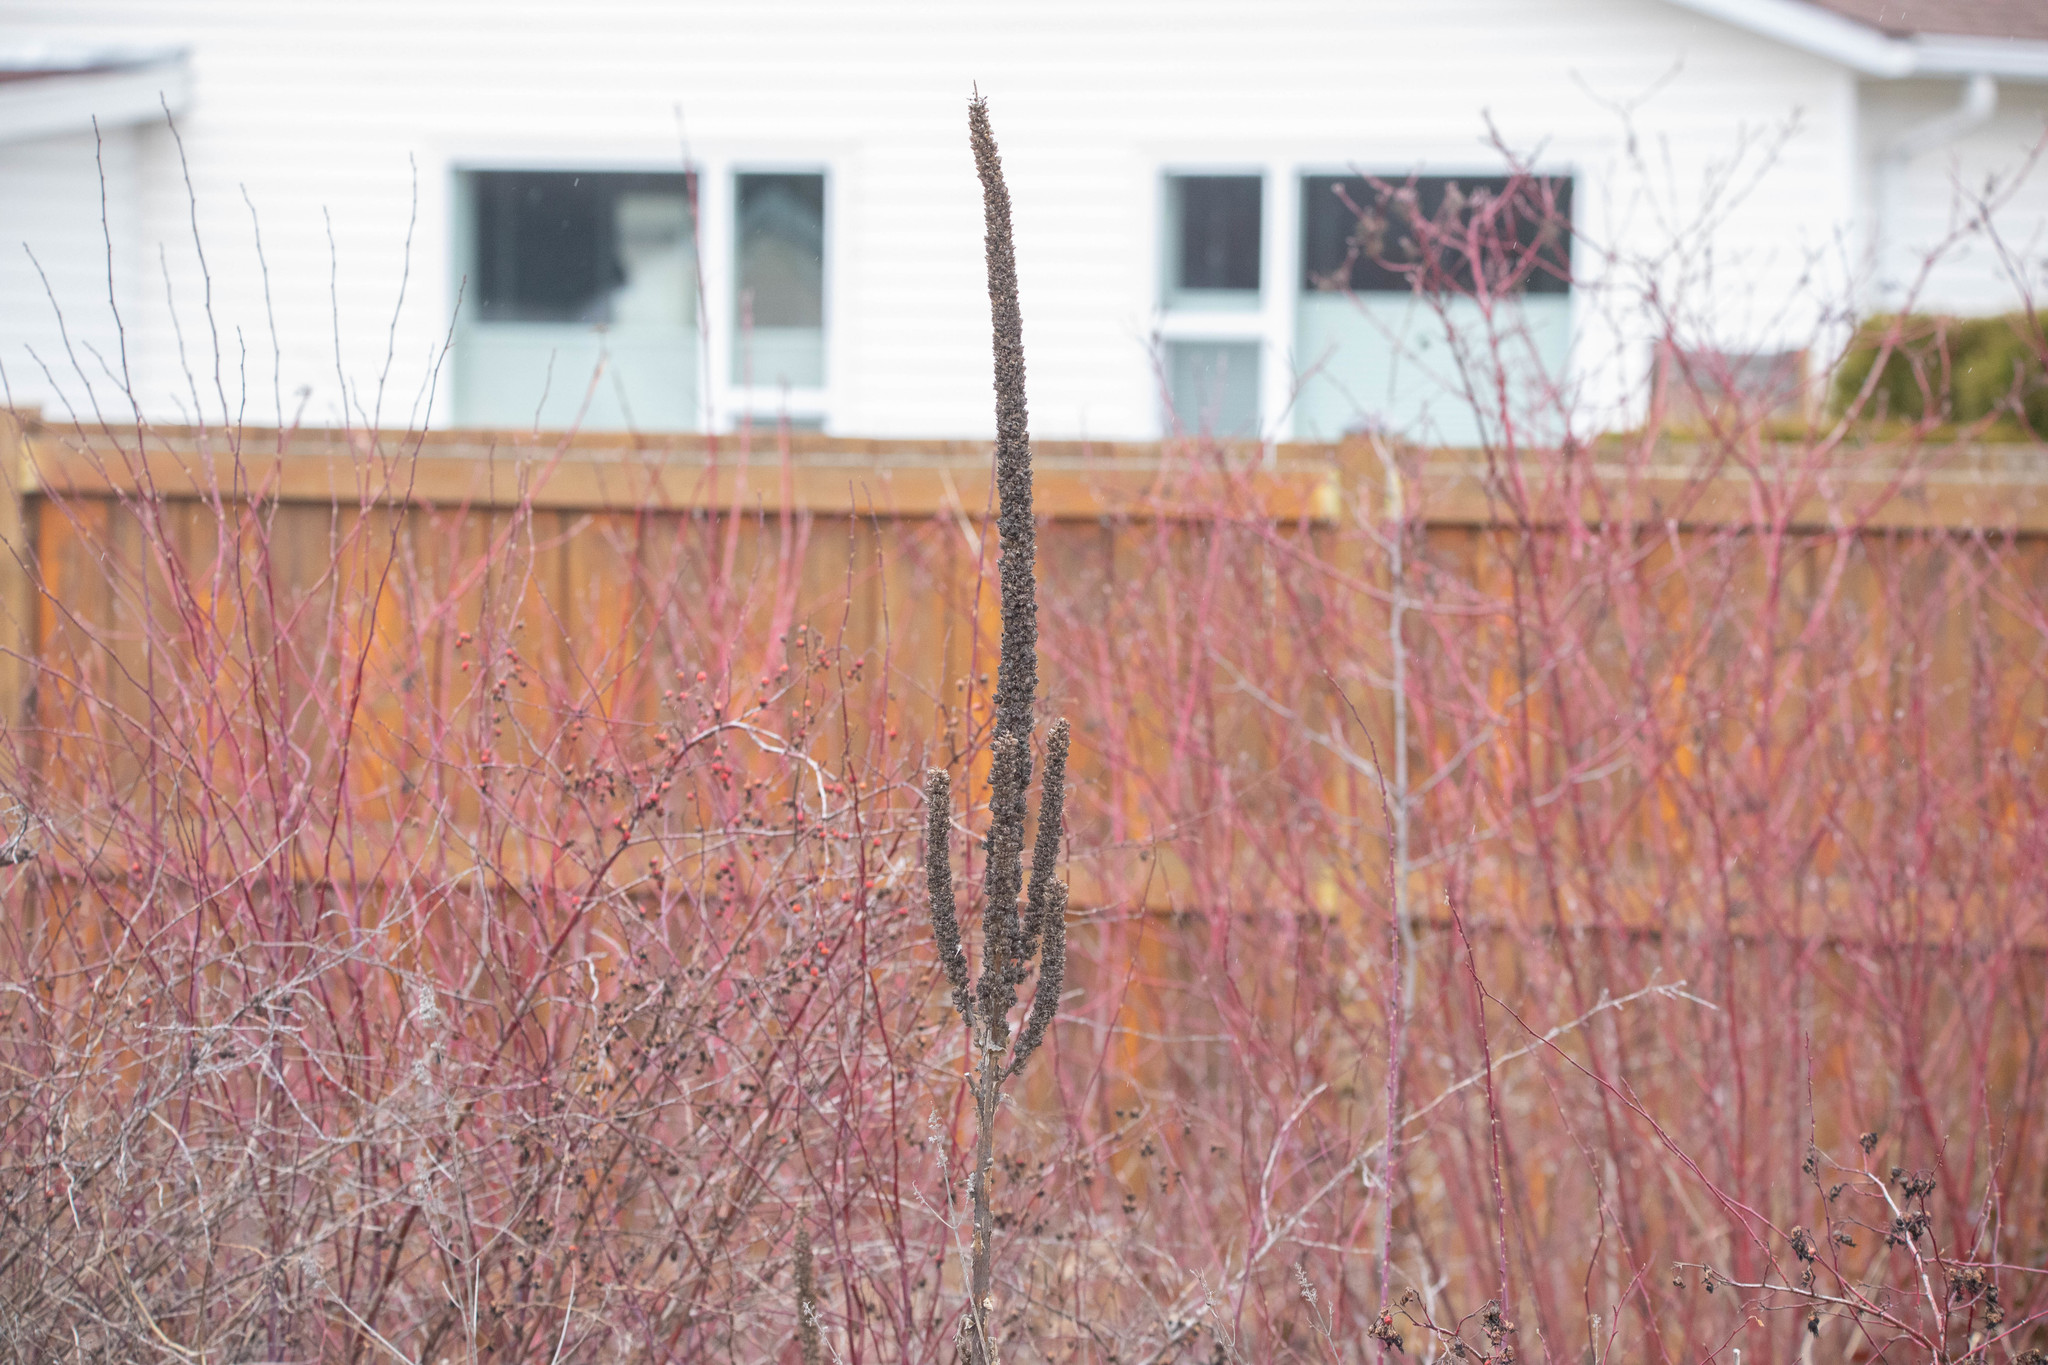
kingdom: Plantae
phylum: Tracheophyta
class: Magnoliopsida
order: Lamiales
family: Scrophulariaceae
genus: Verbascum
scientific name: Verbascum thapsus
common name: Common mullein
